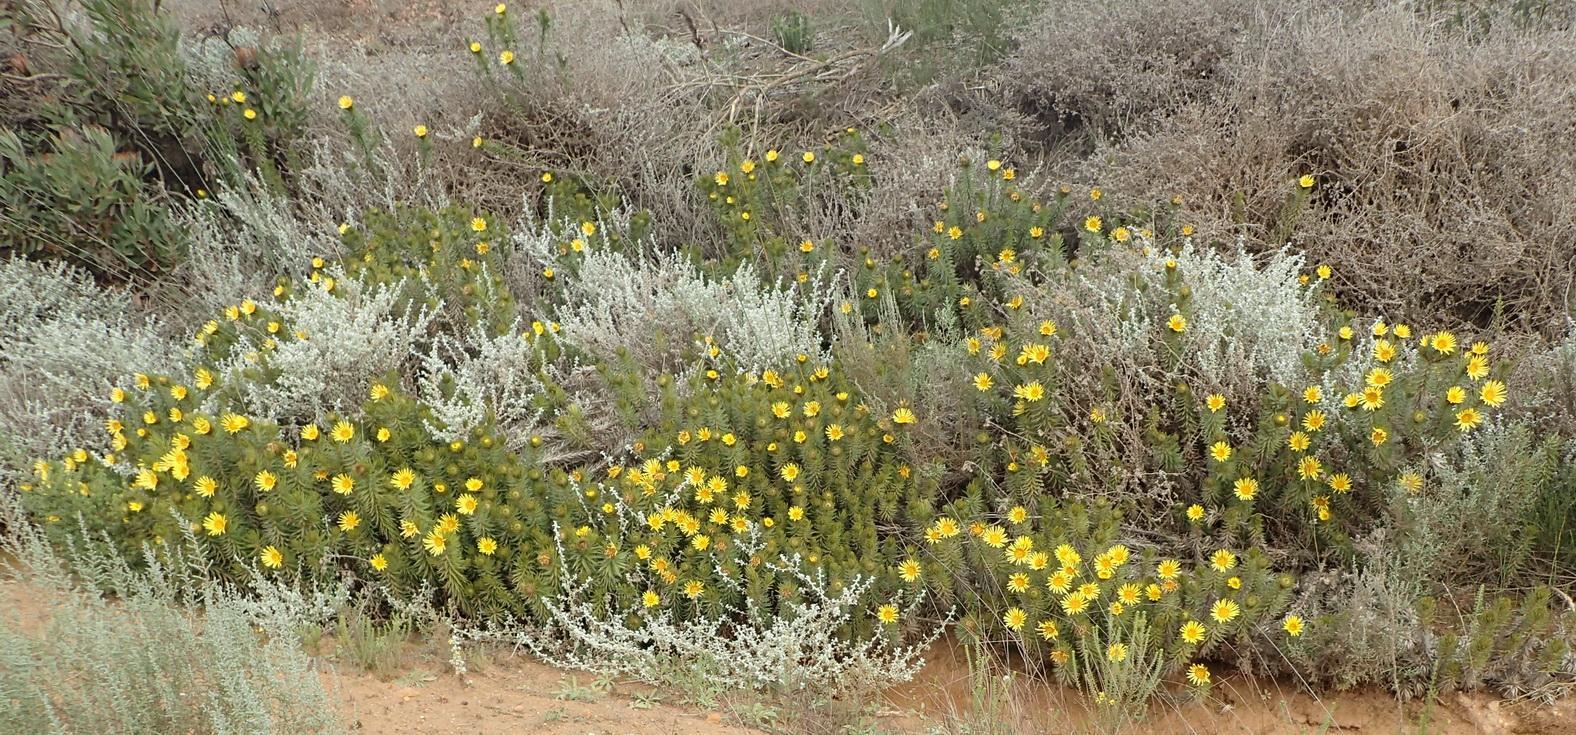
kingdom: Plantae
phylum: Tracheophyta
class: Magnoliopsida
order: Asterales
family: Asteraceae
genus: Cullumia
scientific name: Cullumia carlinoides
